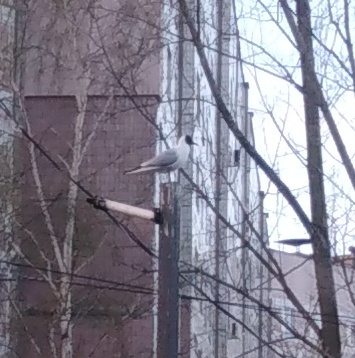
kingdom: Animalia
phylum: Chordata
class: Aves
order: Charadriiformes
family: Laridae
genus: Chroicocephalus
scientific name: Chroicocephalus ridibundus
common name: Black-headed gull
